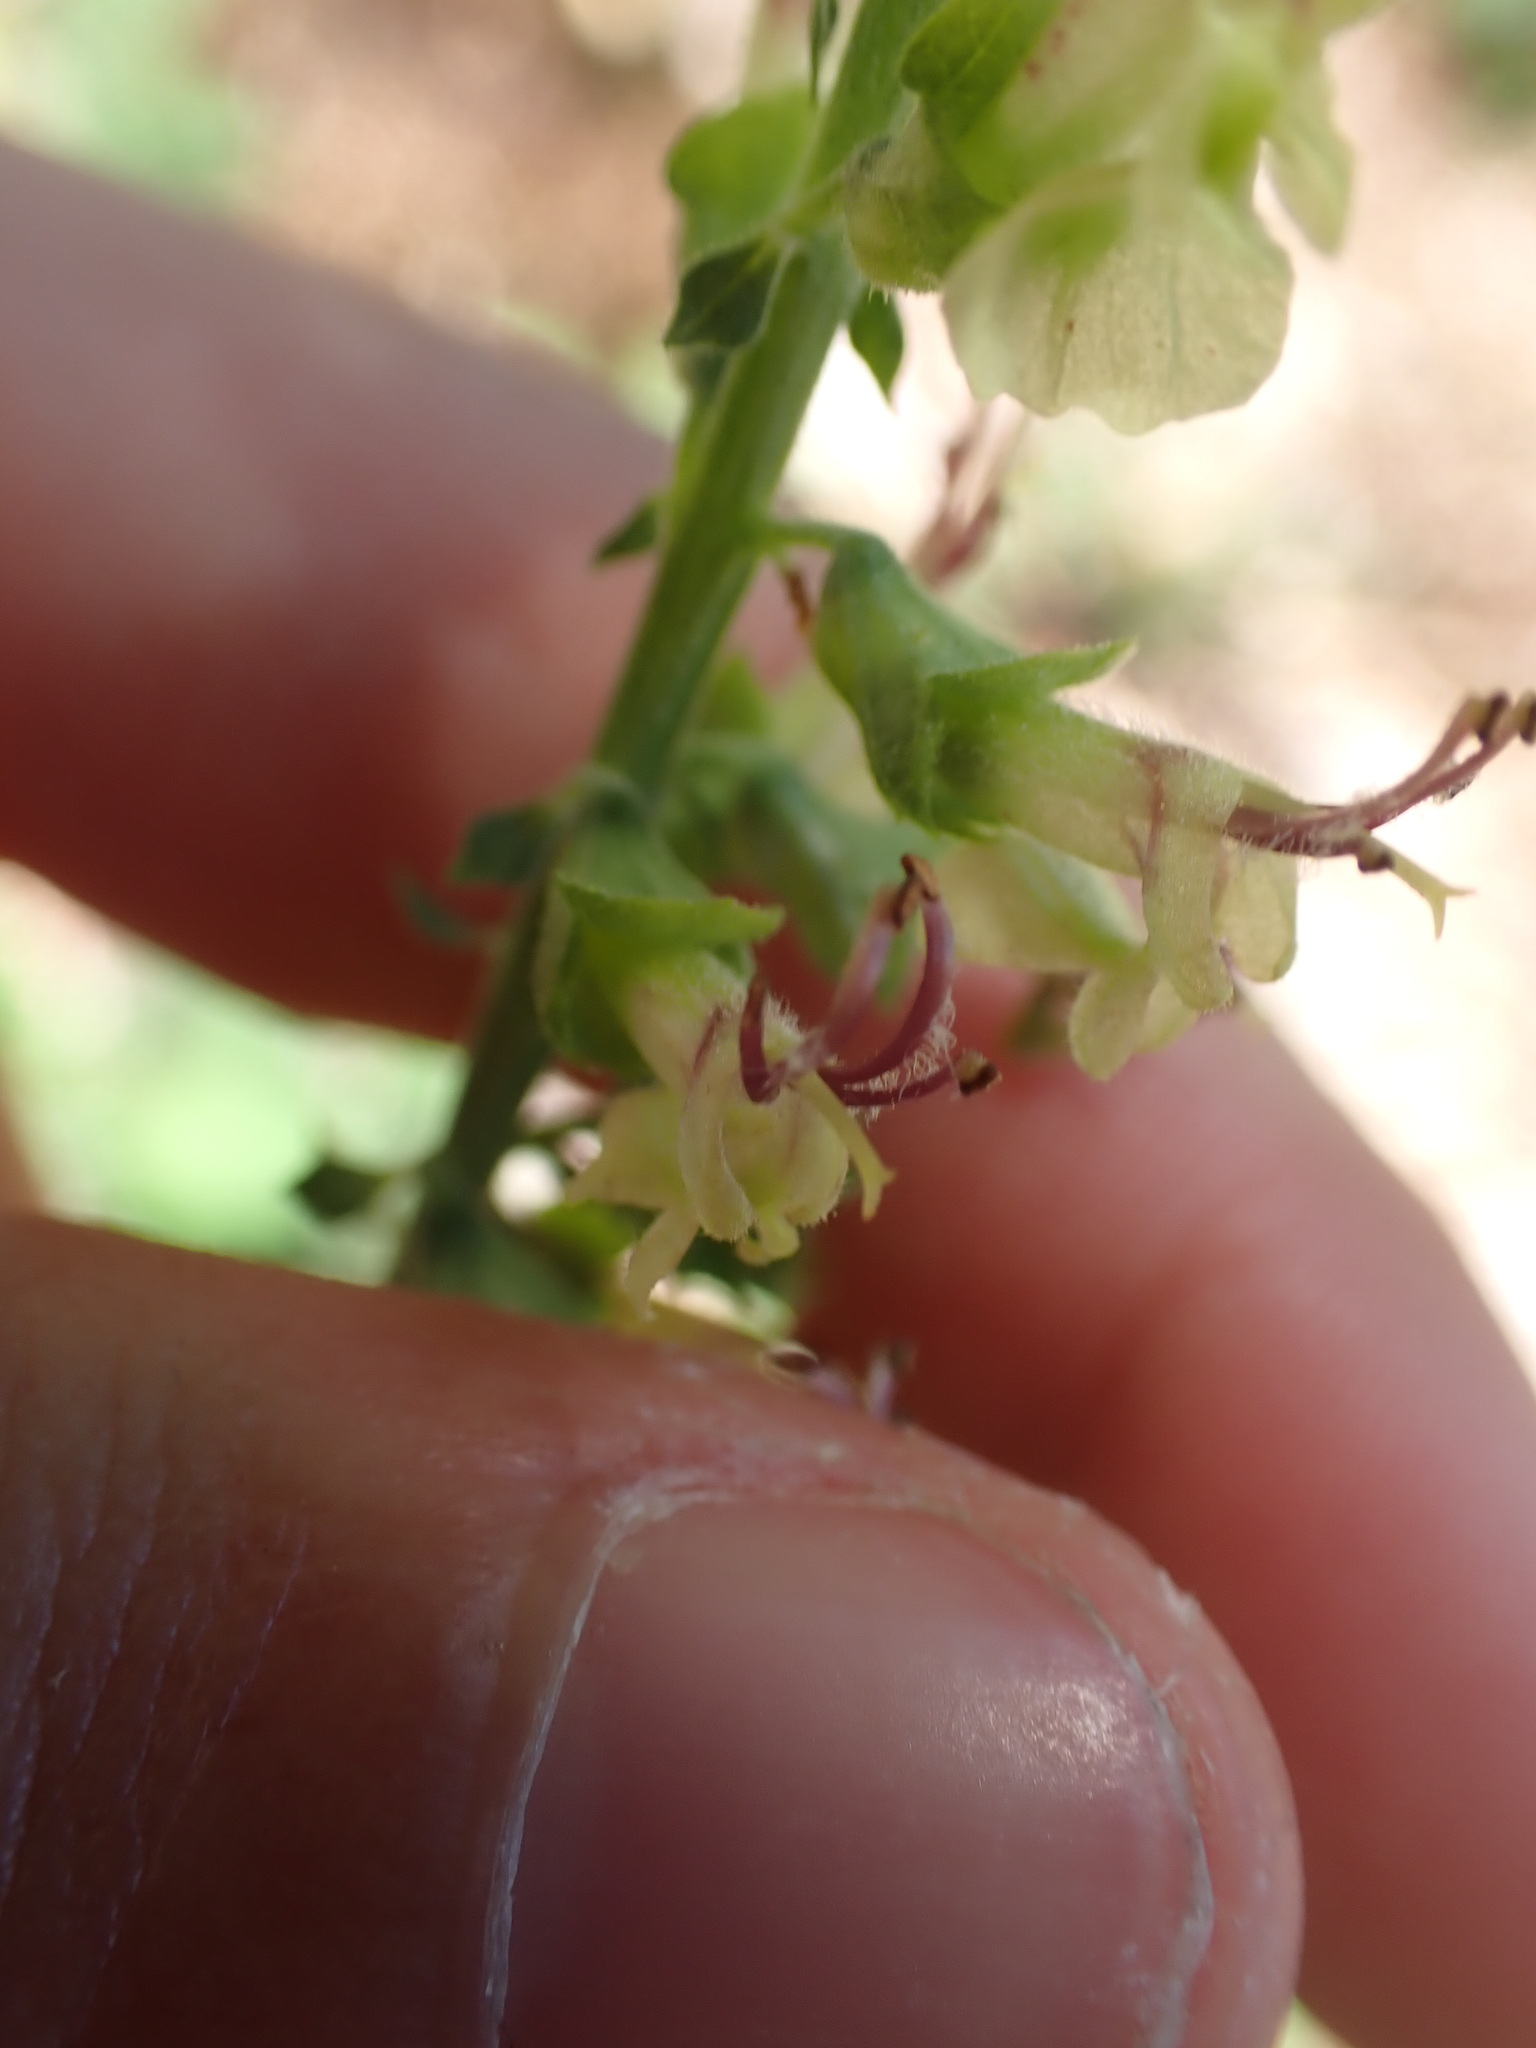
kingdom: Plantae
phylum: Tracheophyta
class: Magnoliopsida
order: Lamiales
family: Lamiaceae
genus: Teucrium
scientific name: Teucrium scorodonia
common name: Woodland germander
